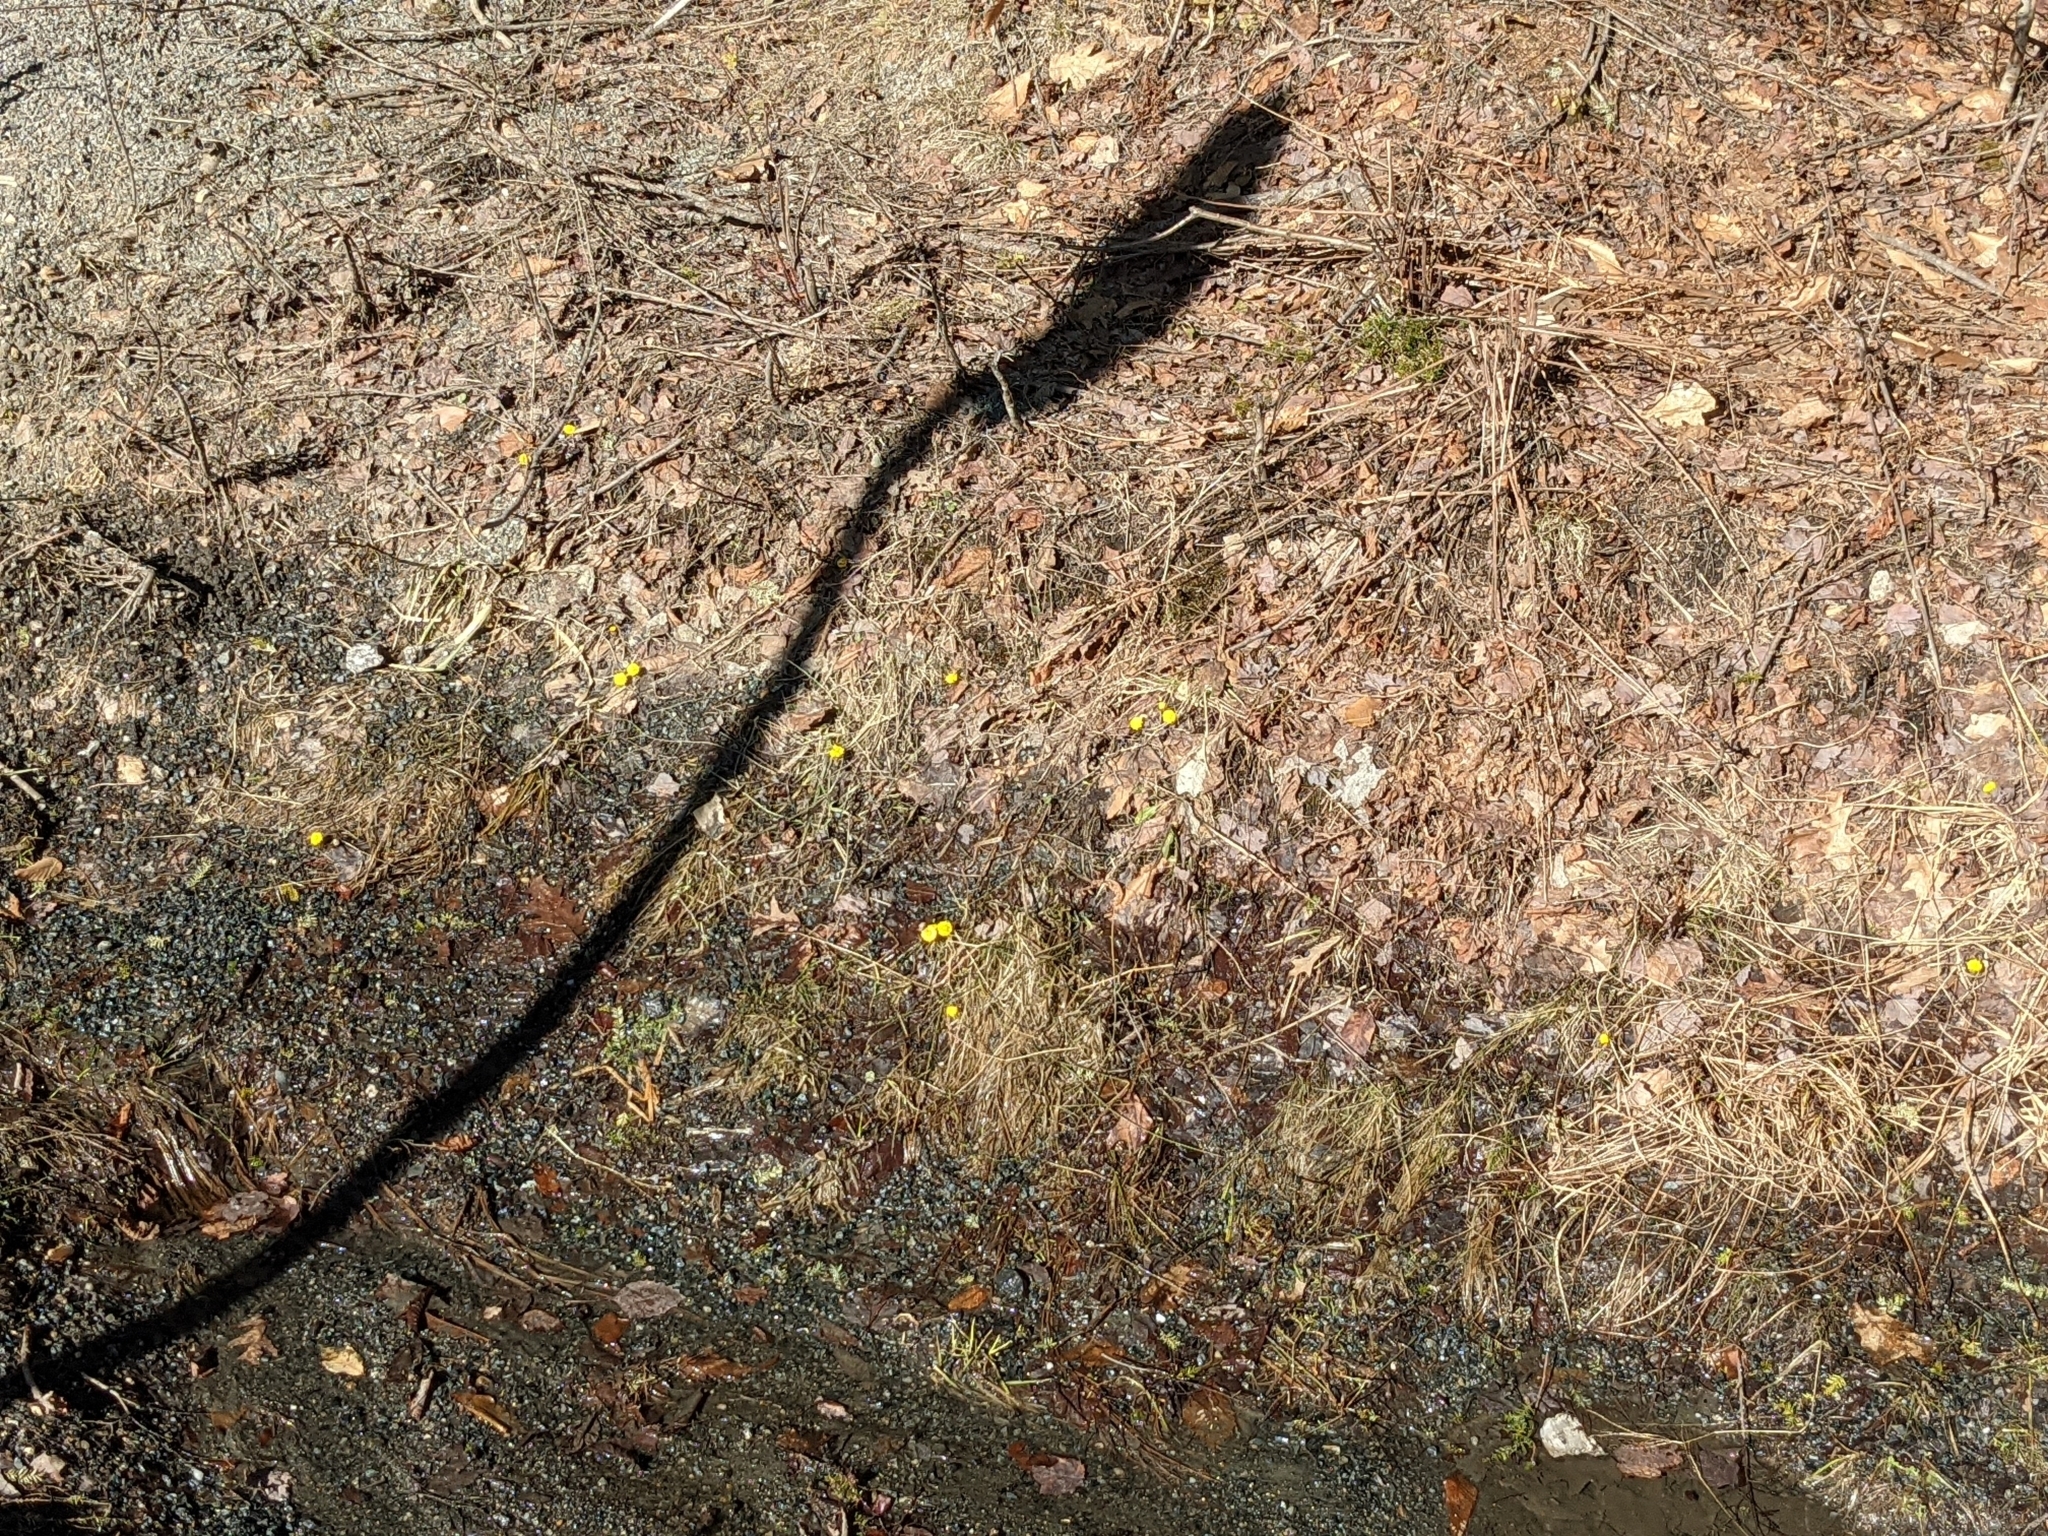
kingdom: Plantae
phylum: Tracheophyta
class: Magnoliopsida
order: Asterales
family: Asteraceae
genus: Tussilago
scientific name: Tussilago farfara
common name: Coltsfoot
